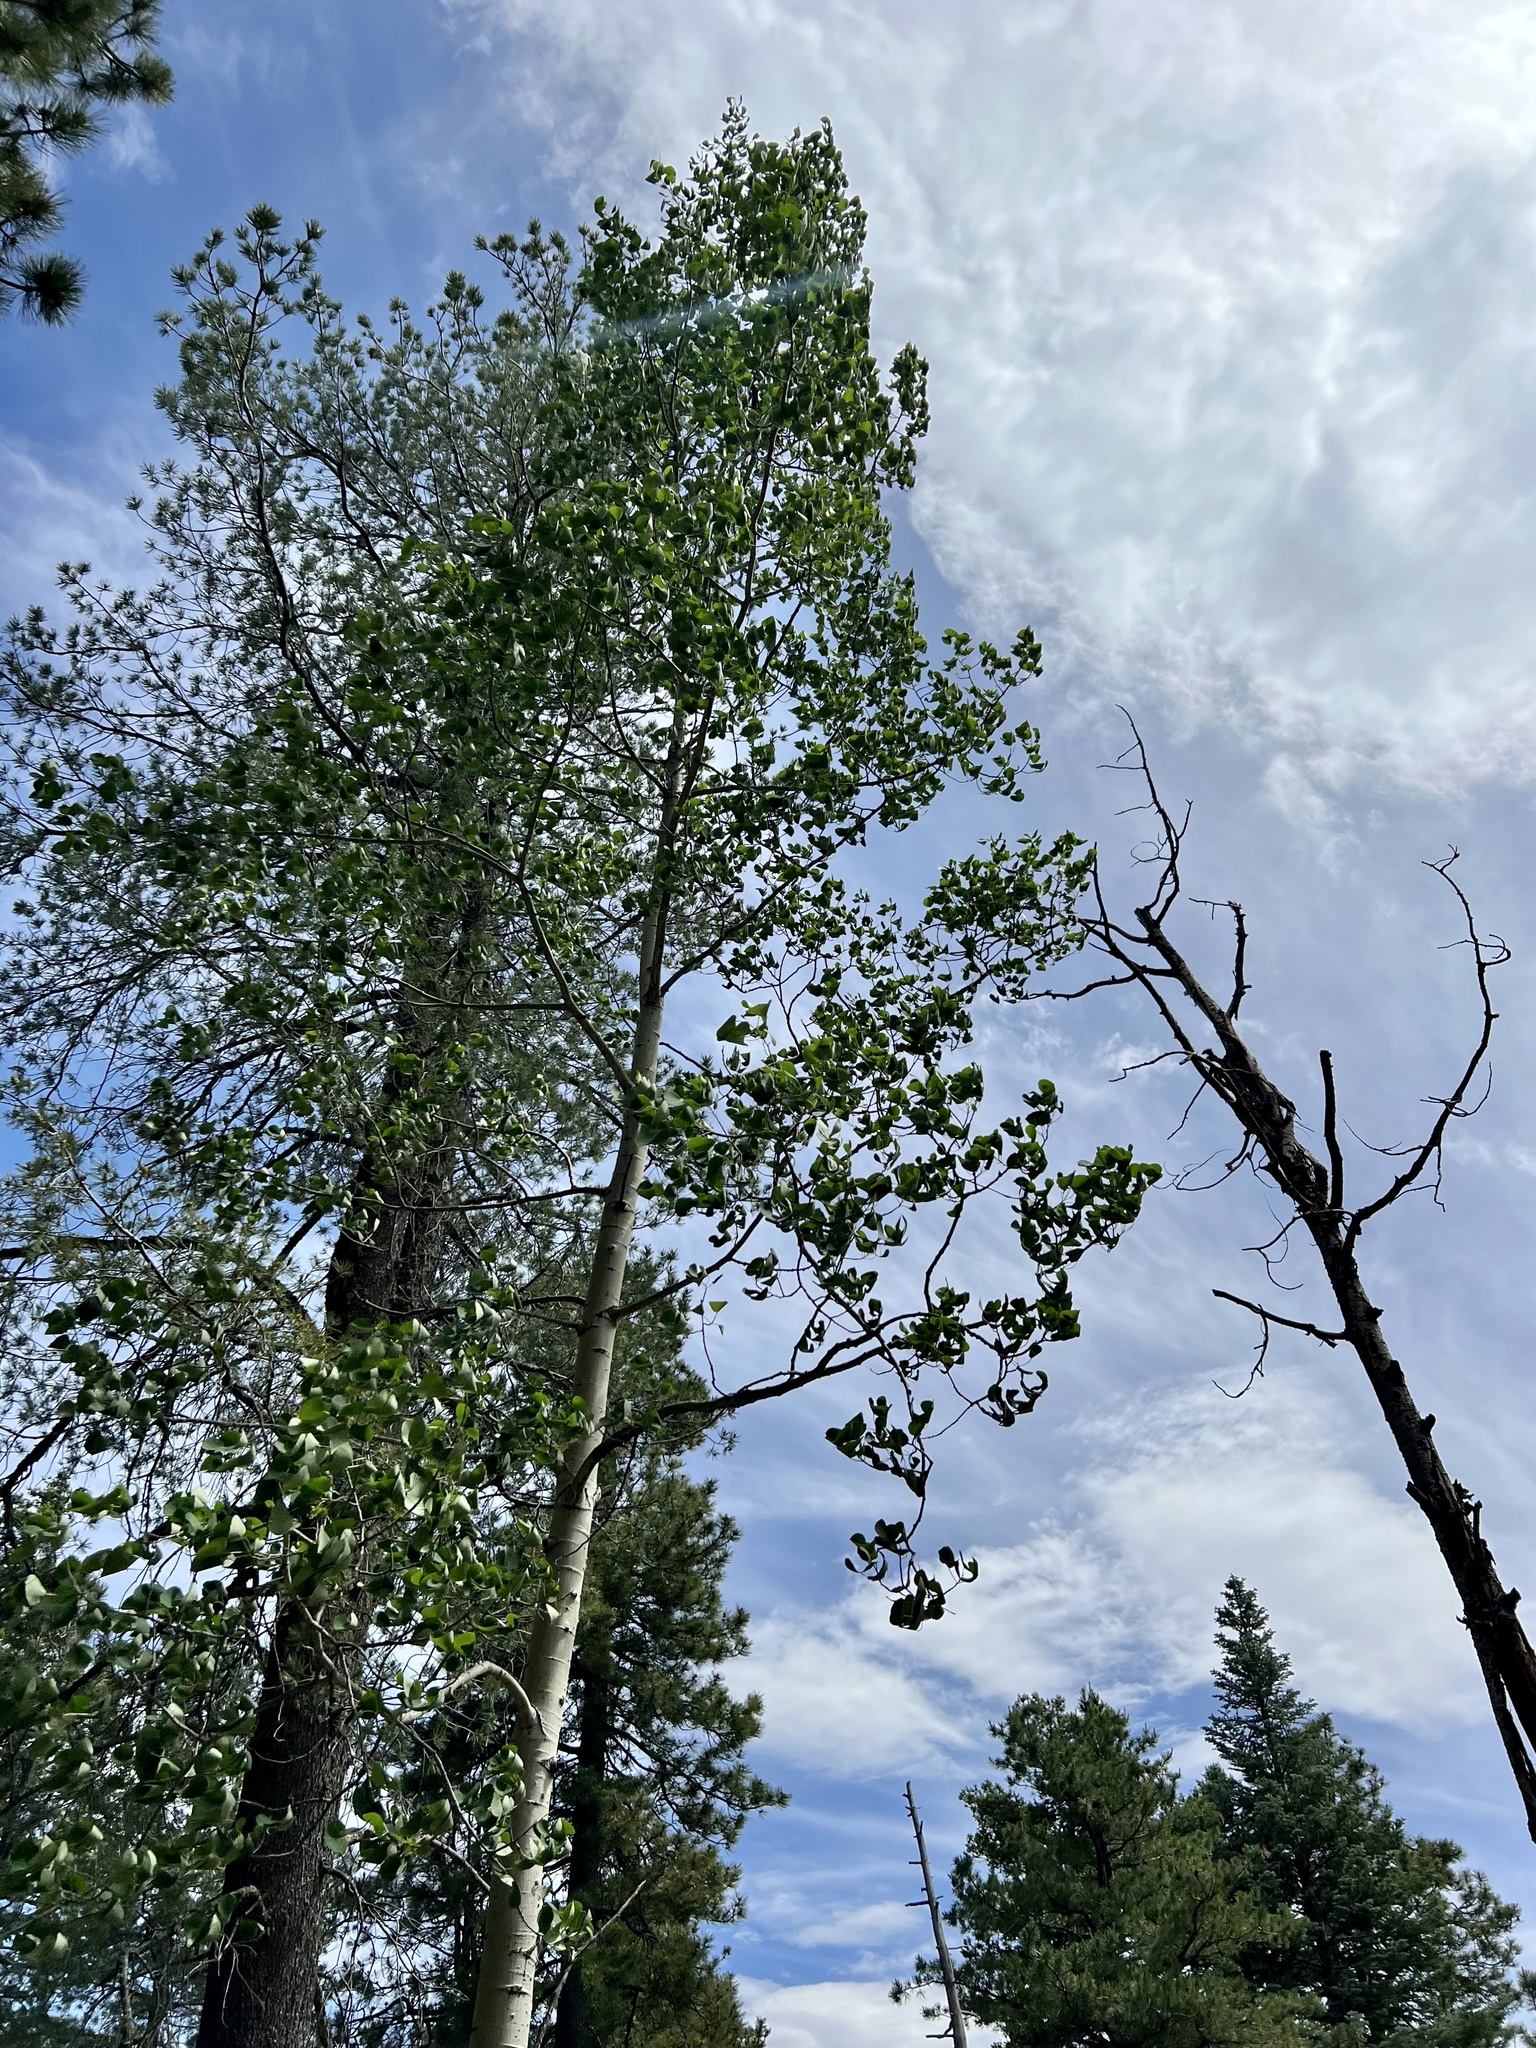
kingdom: Plantae
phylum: Tracheophyta
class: Magnoliopsida
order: Malpighiales
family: Salicaceae
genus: Populus
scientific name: Populus tremuloides
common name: Quaking aspen
